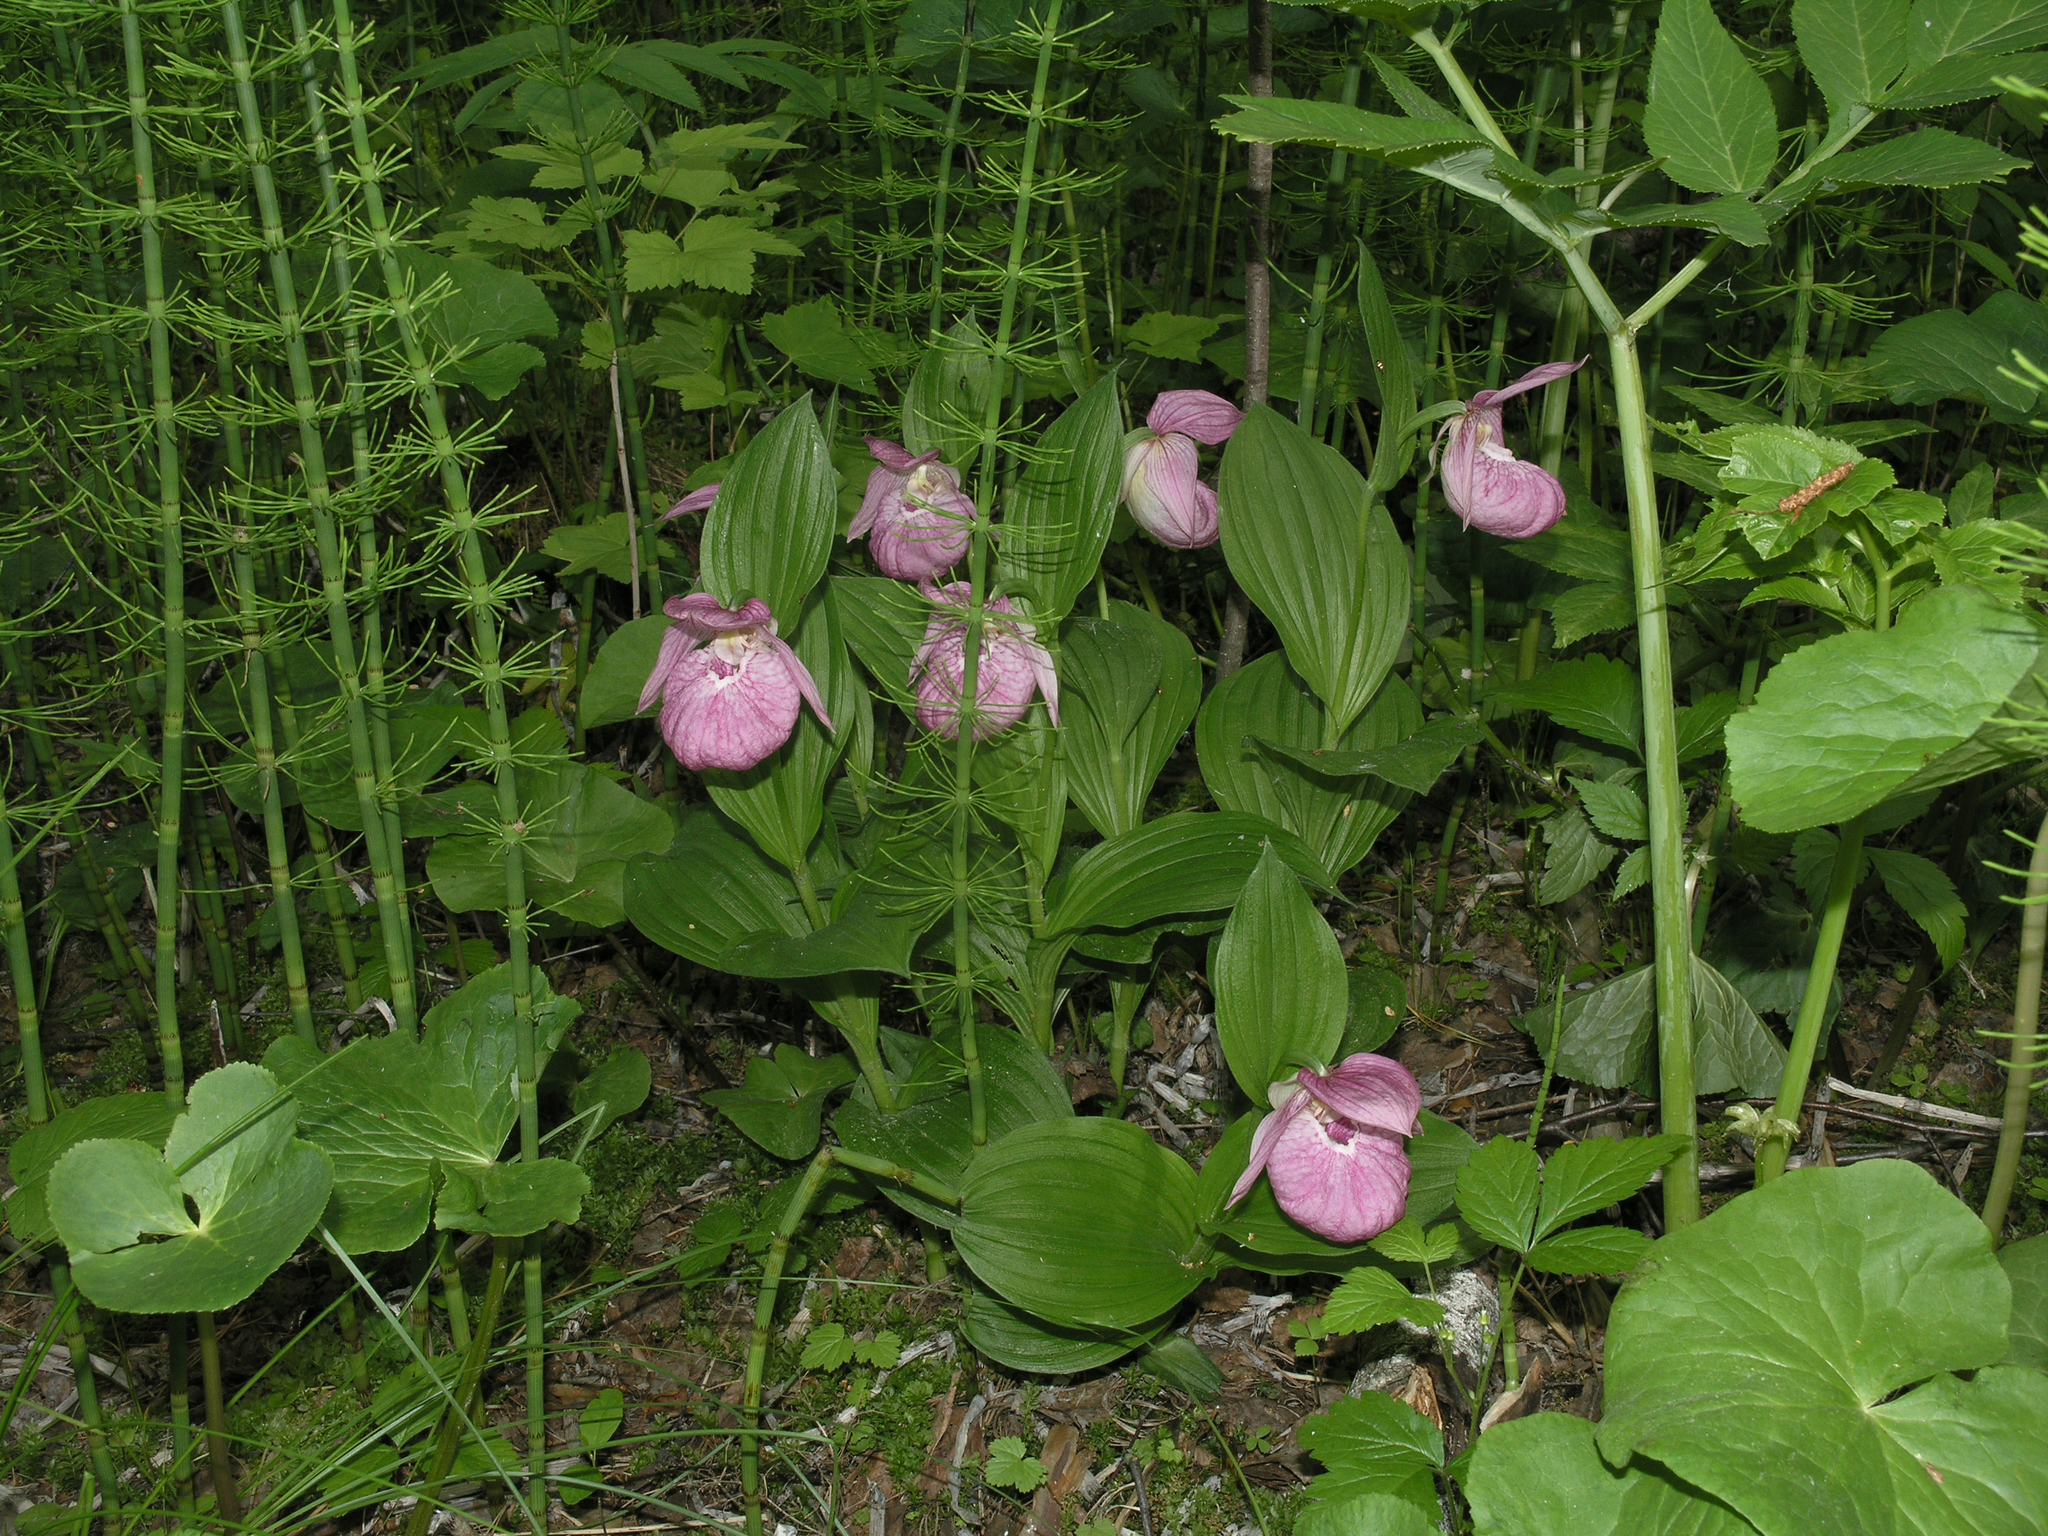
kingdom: Plantae
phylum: Tracheophyta
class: Liliopsida
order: Asparagales
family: Orchidaceae
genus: Cypripedium
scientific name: Cypripedium macranthos
